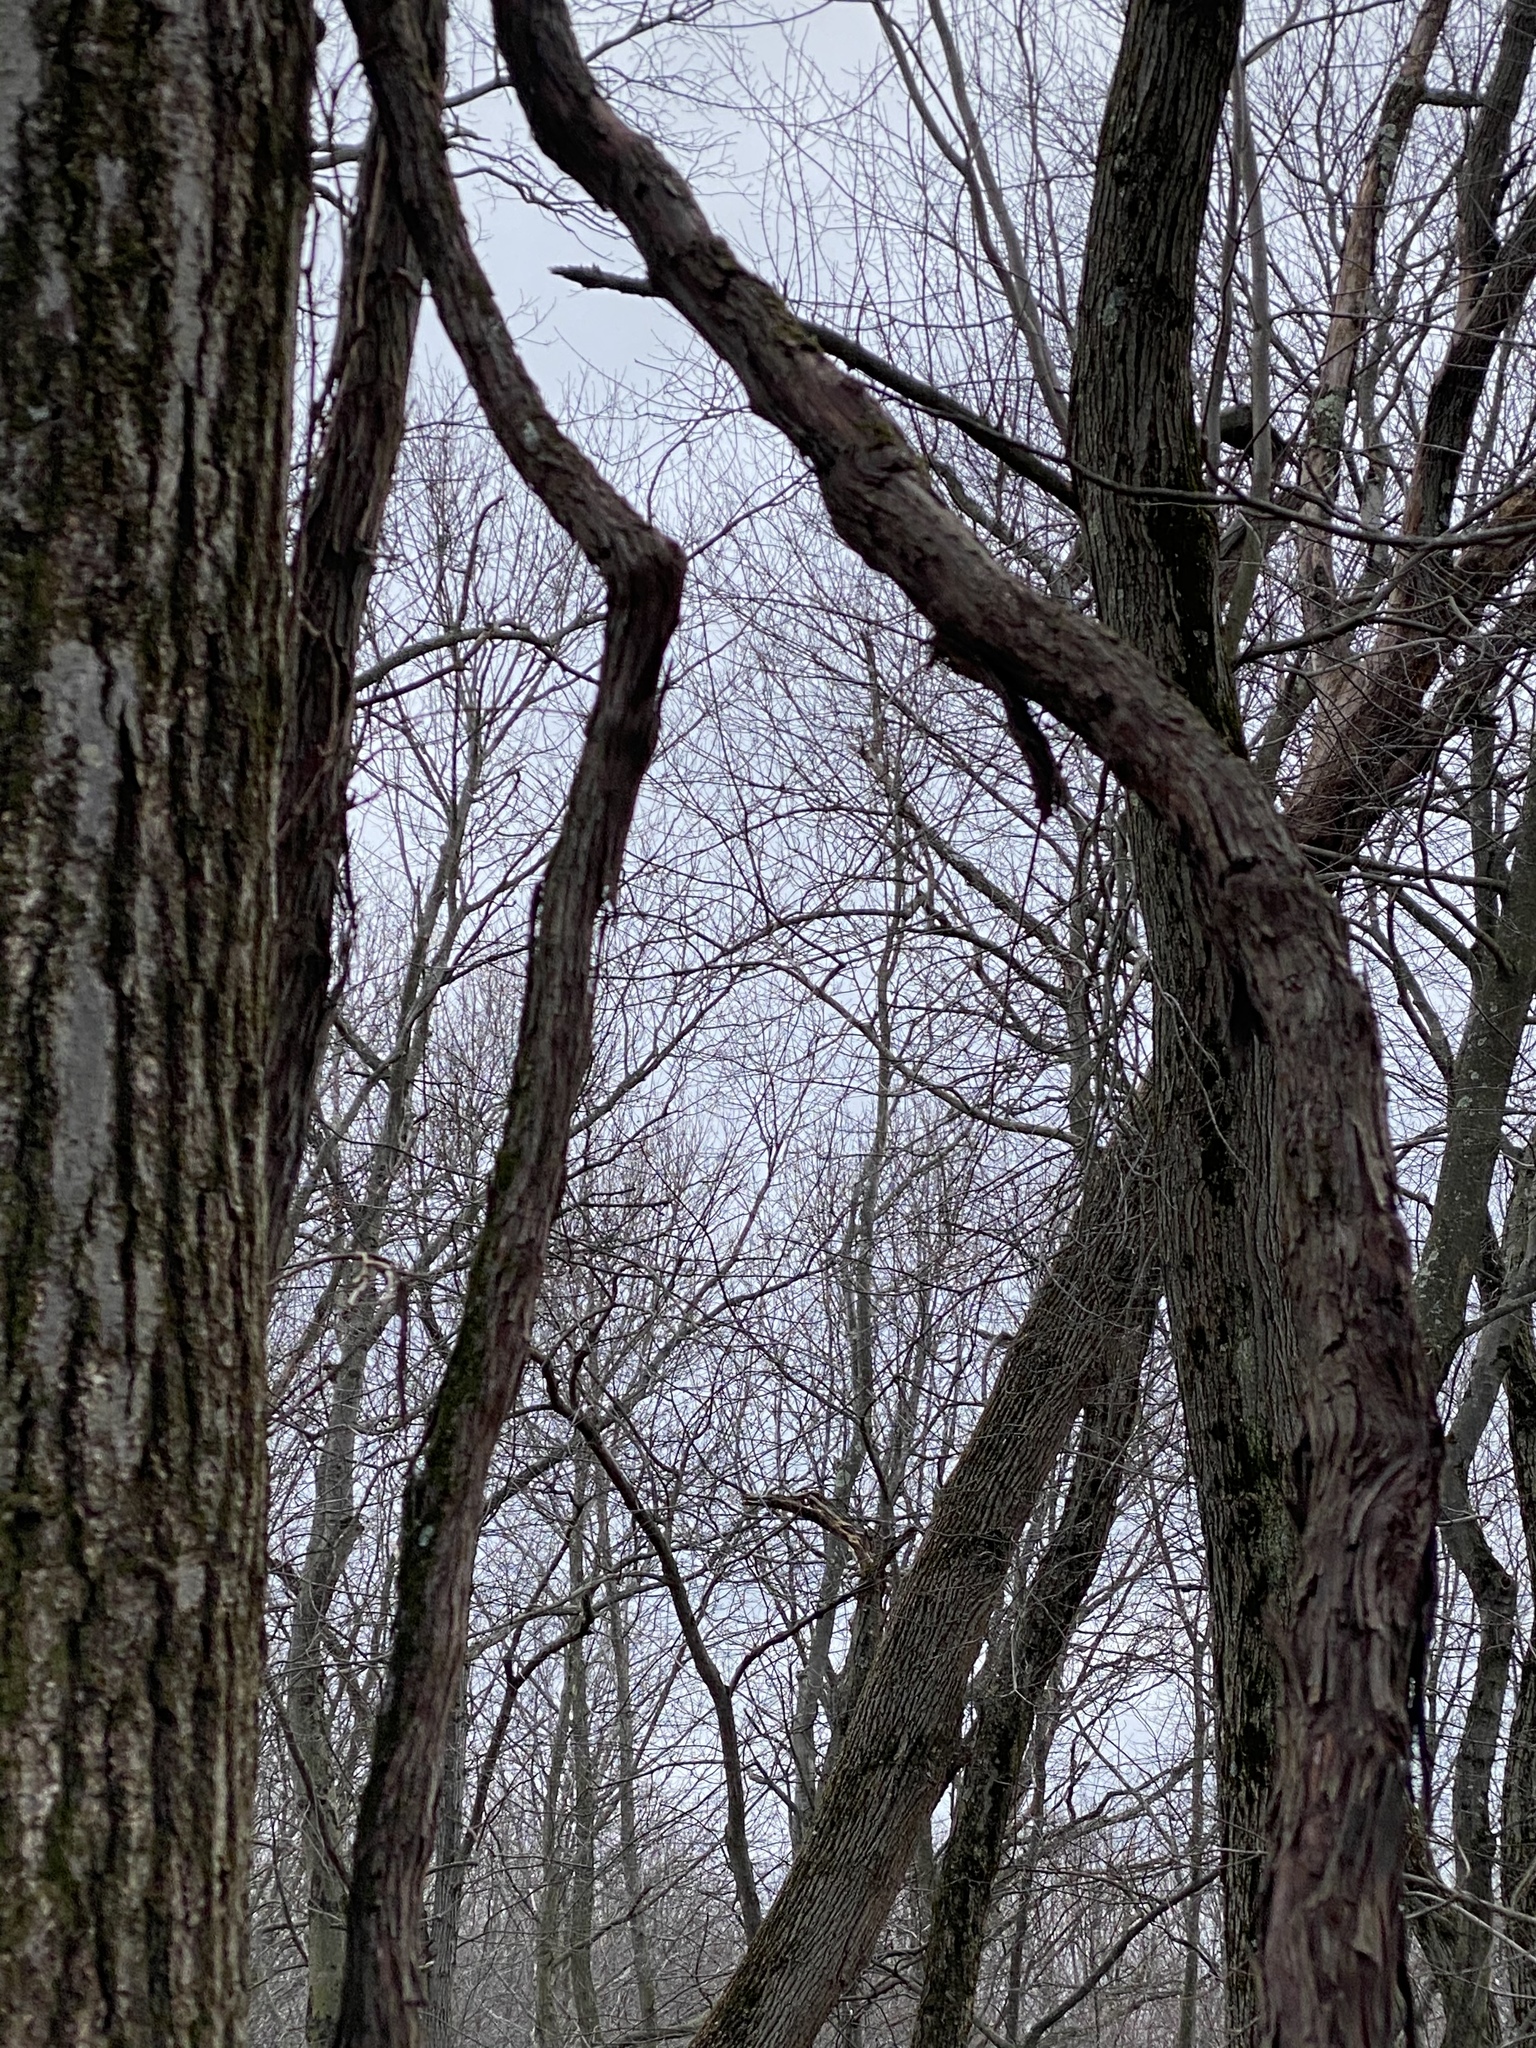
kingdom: Plantae
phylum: Tracheophyta
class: Magnoliopsida
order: Vitales
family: Vitaceae
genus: Vitis
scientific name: Vitis
